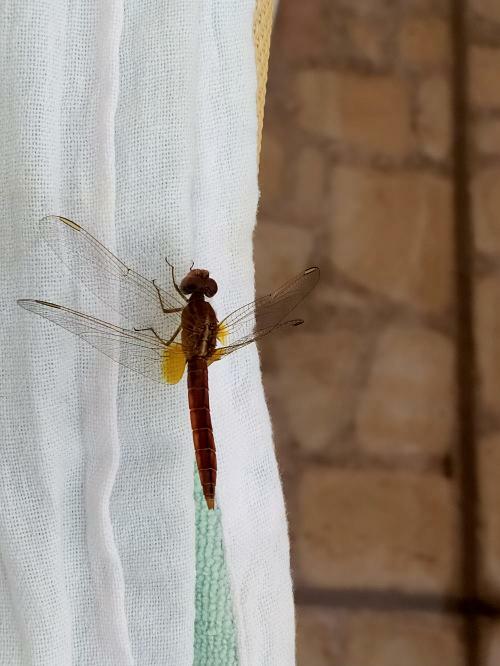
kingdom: Animalia
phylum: Arthropoda
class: Insecta
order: Odonata
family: Libellulidae
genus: Crocothemis
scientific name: Crocothemis erythraea
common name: Scarlet dragonfly
